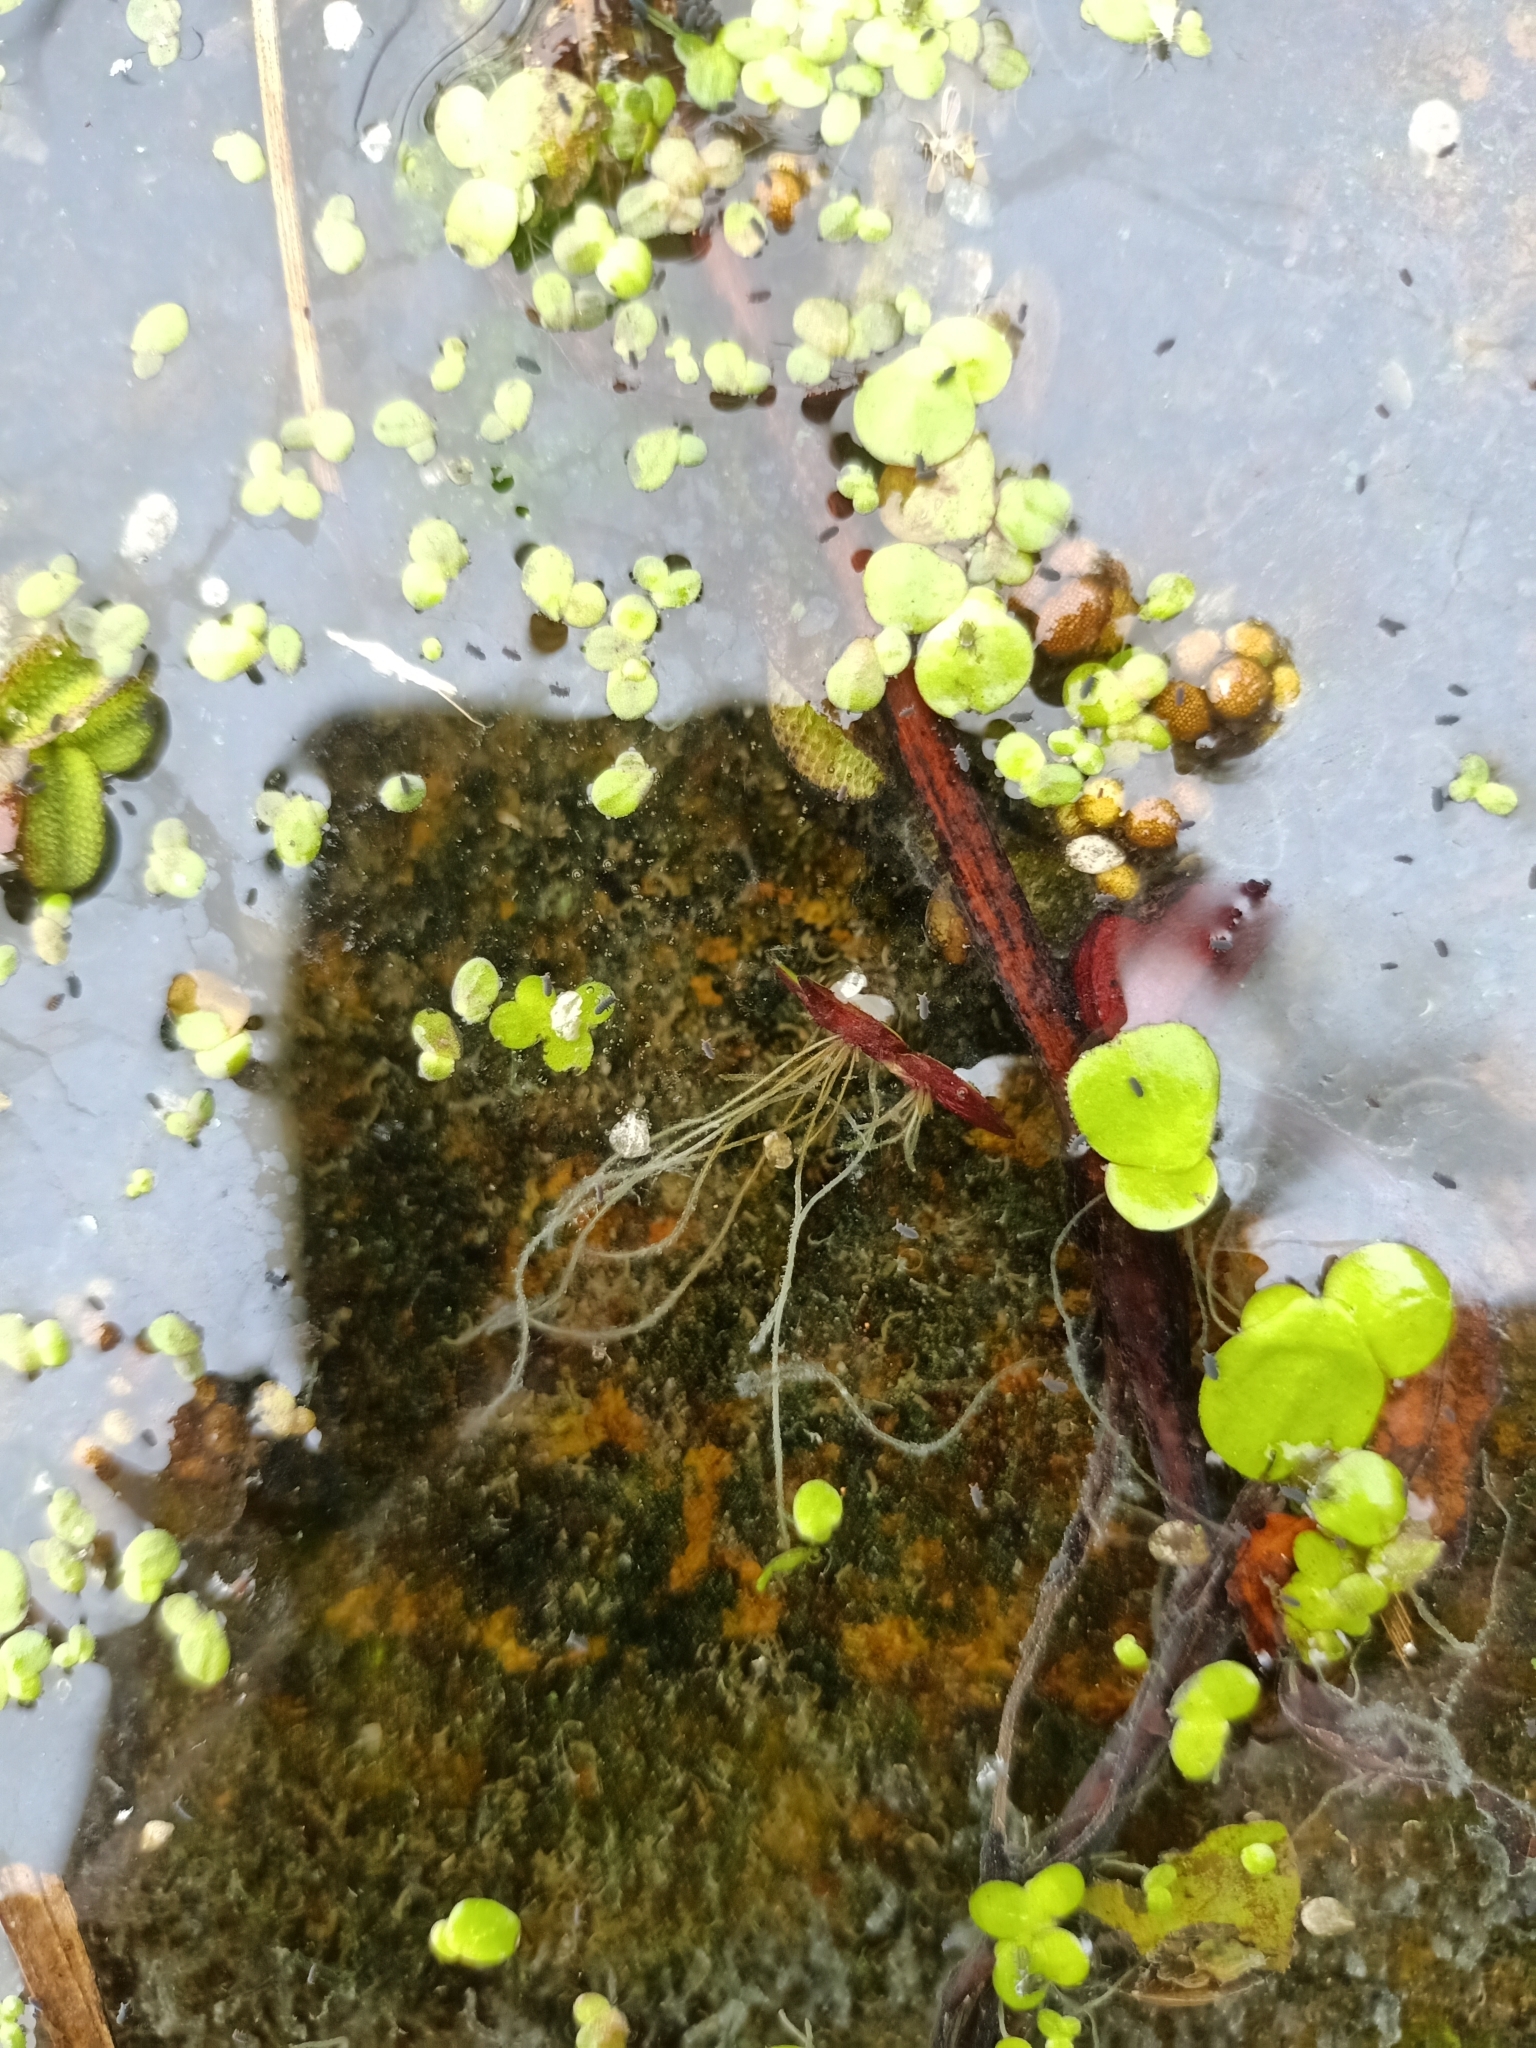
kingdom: Plantae
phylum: Tracheophyta
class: Liliopsida
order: Alismatales
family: Araceae
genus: Spirodela
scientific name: Spirodela polyrhiza
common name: Great duckweed
